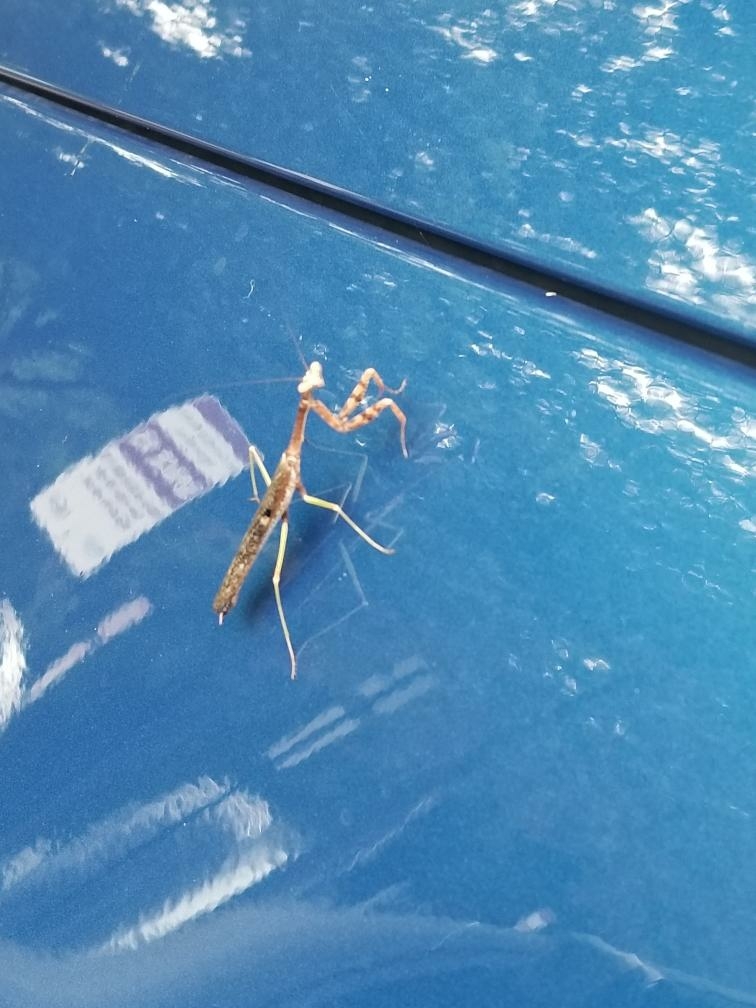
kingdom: Animalia
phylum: Arthropoda
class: Insecta
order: Mantodea
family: Mantidae
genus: Stagmomantis
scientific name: Stagmomantis carolina
